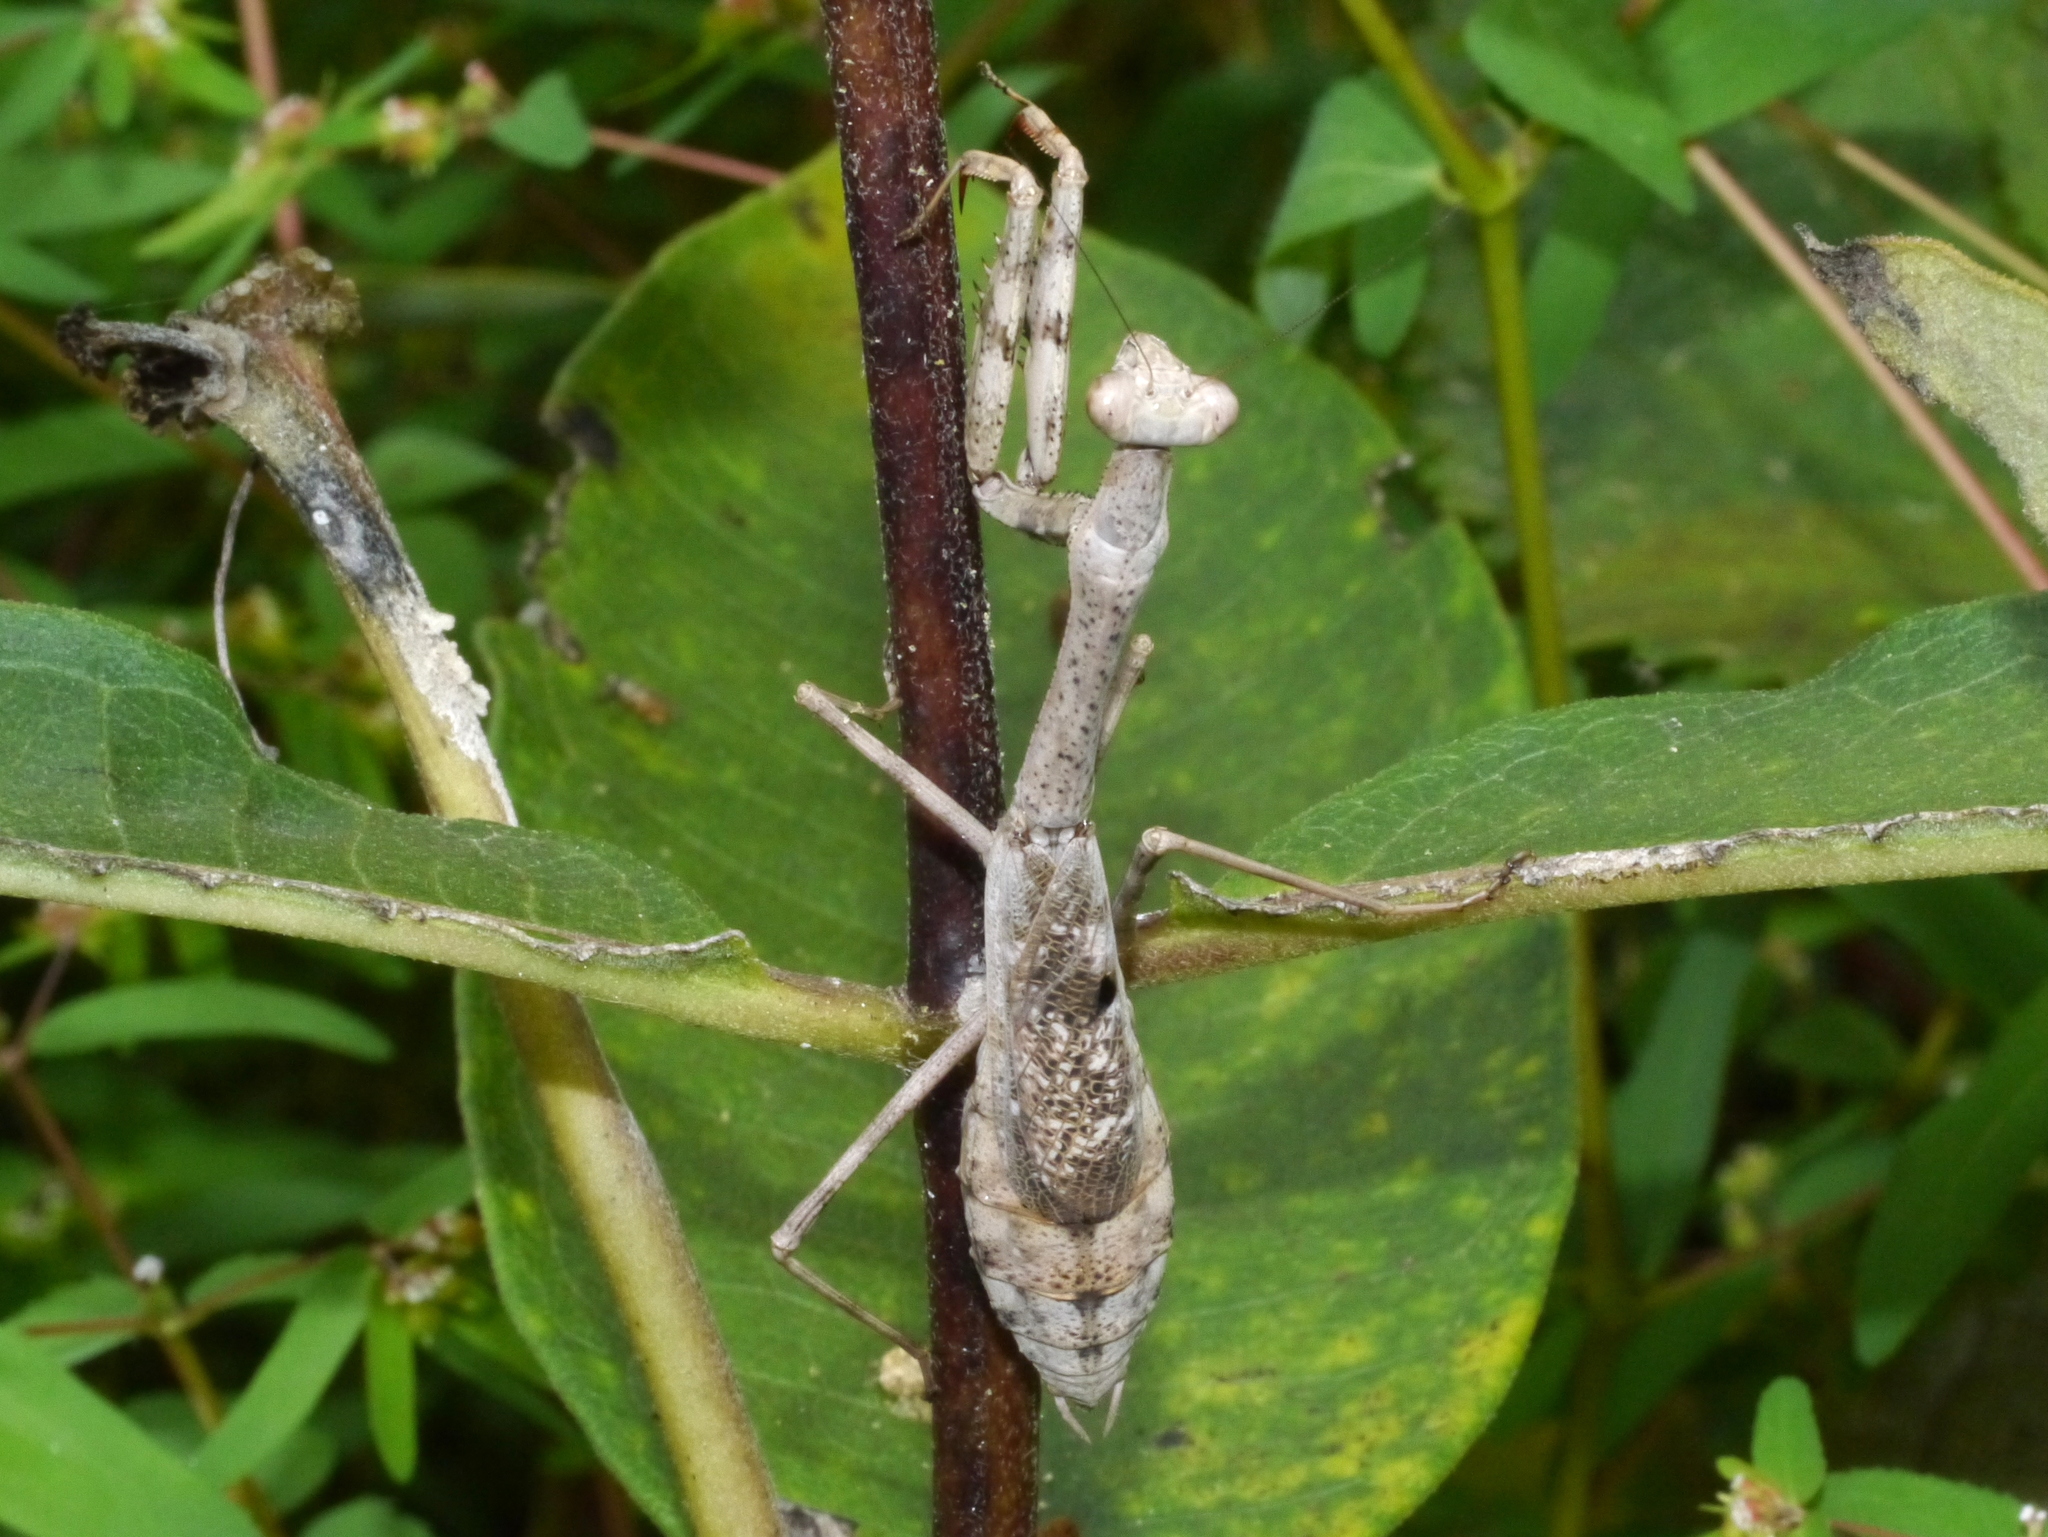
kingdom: Animalia
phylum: Arthropoda
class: Insecta
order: Mantodea
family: Mantidae
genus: Stagmomantis
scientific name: Stagmomantis carolina
